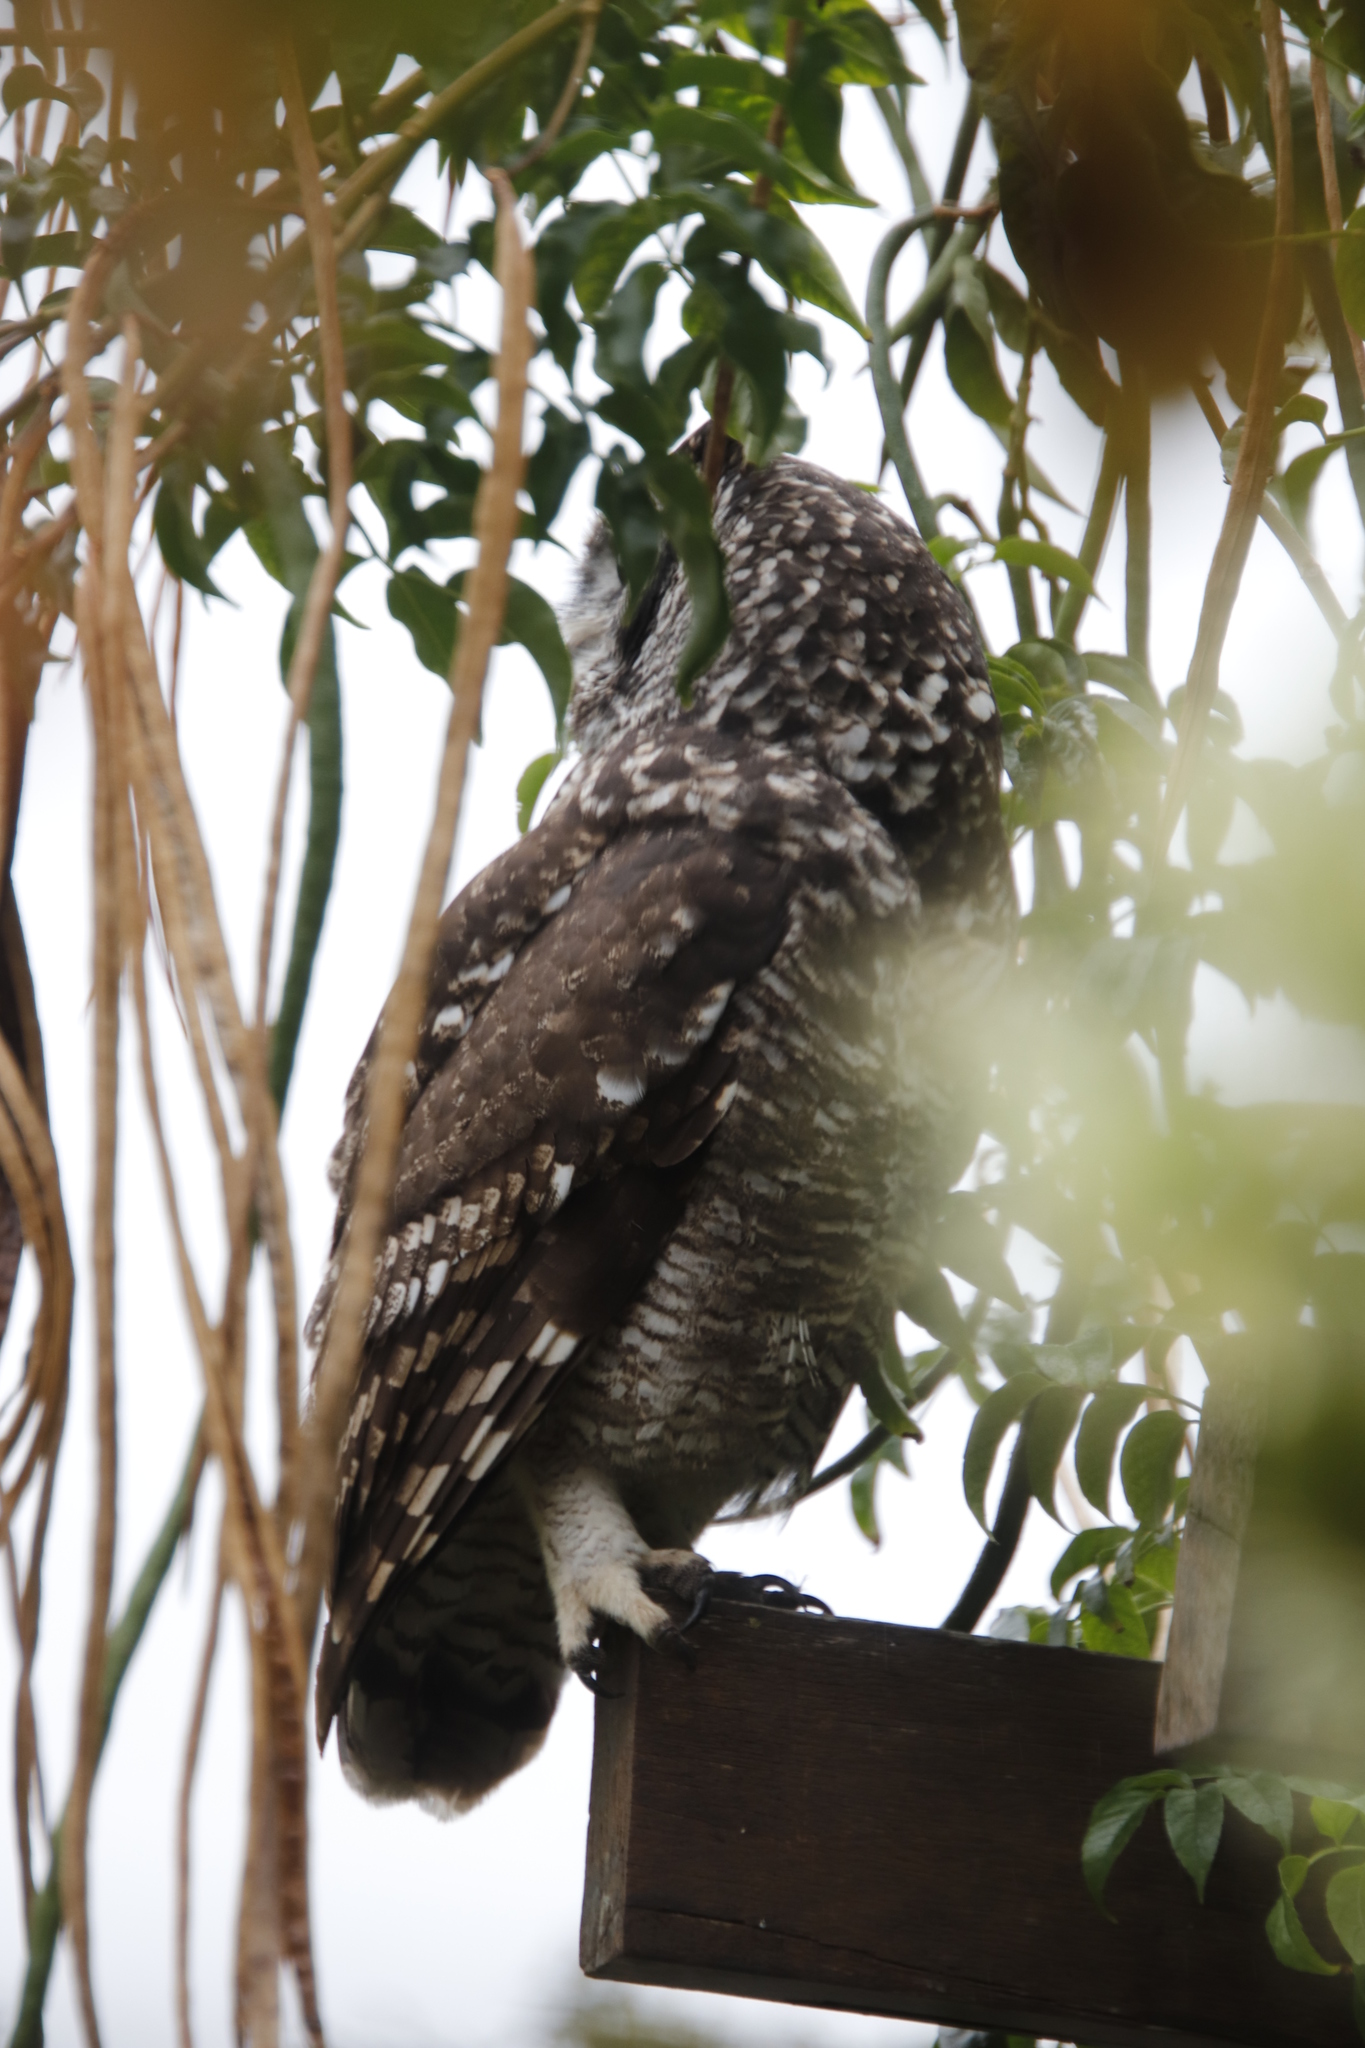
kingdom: Animalia
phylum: Chordata
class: Aves
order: Strigiformes
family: Strigidae
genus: Bubo
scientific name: Bubo africanus
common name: Spotted eagle-owl
